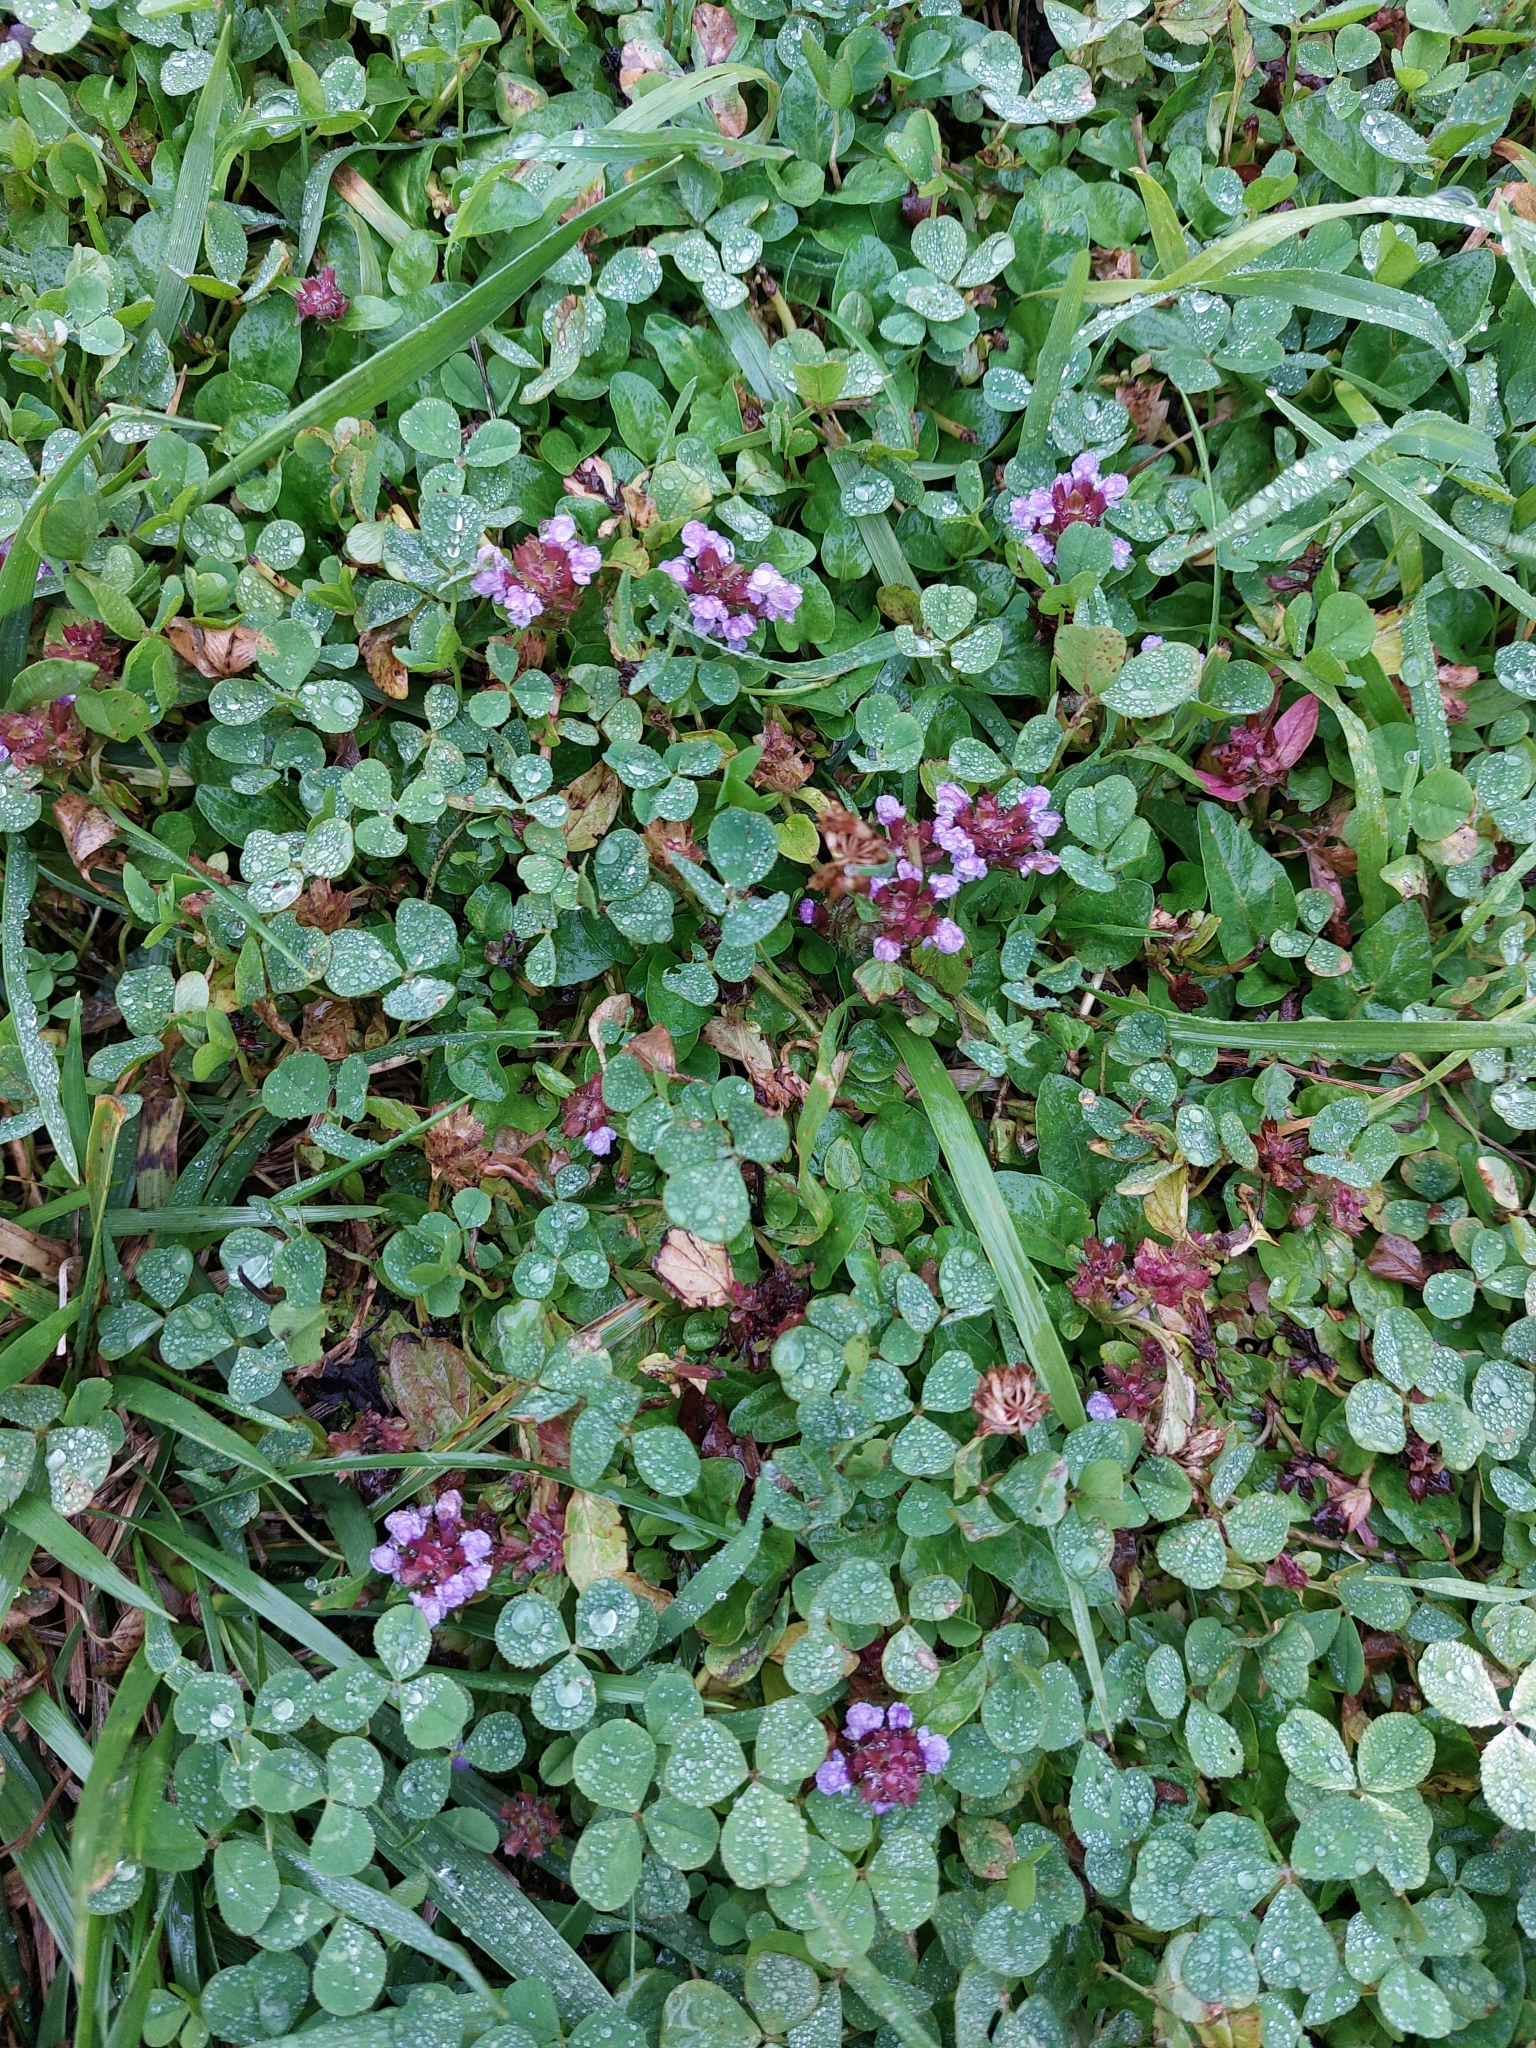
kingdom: Plantae
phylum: Tracheophyta
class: Magnoliopsida
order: Lamiales
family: Lamiaceae
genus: Prunella
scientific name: Prunella vulgaris
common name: Heal-all
